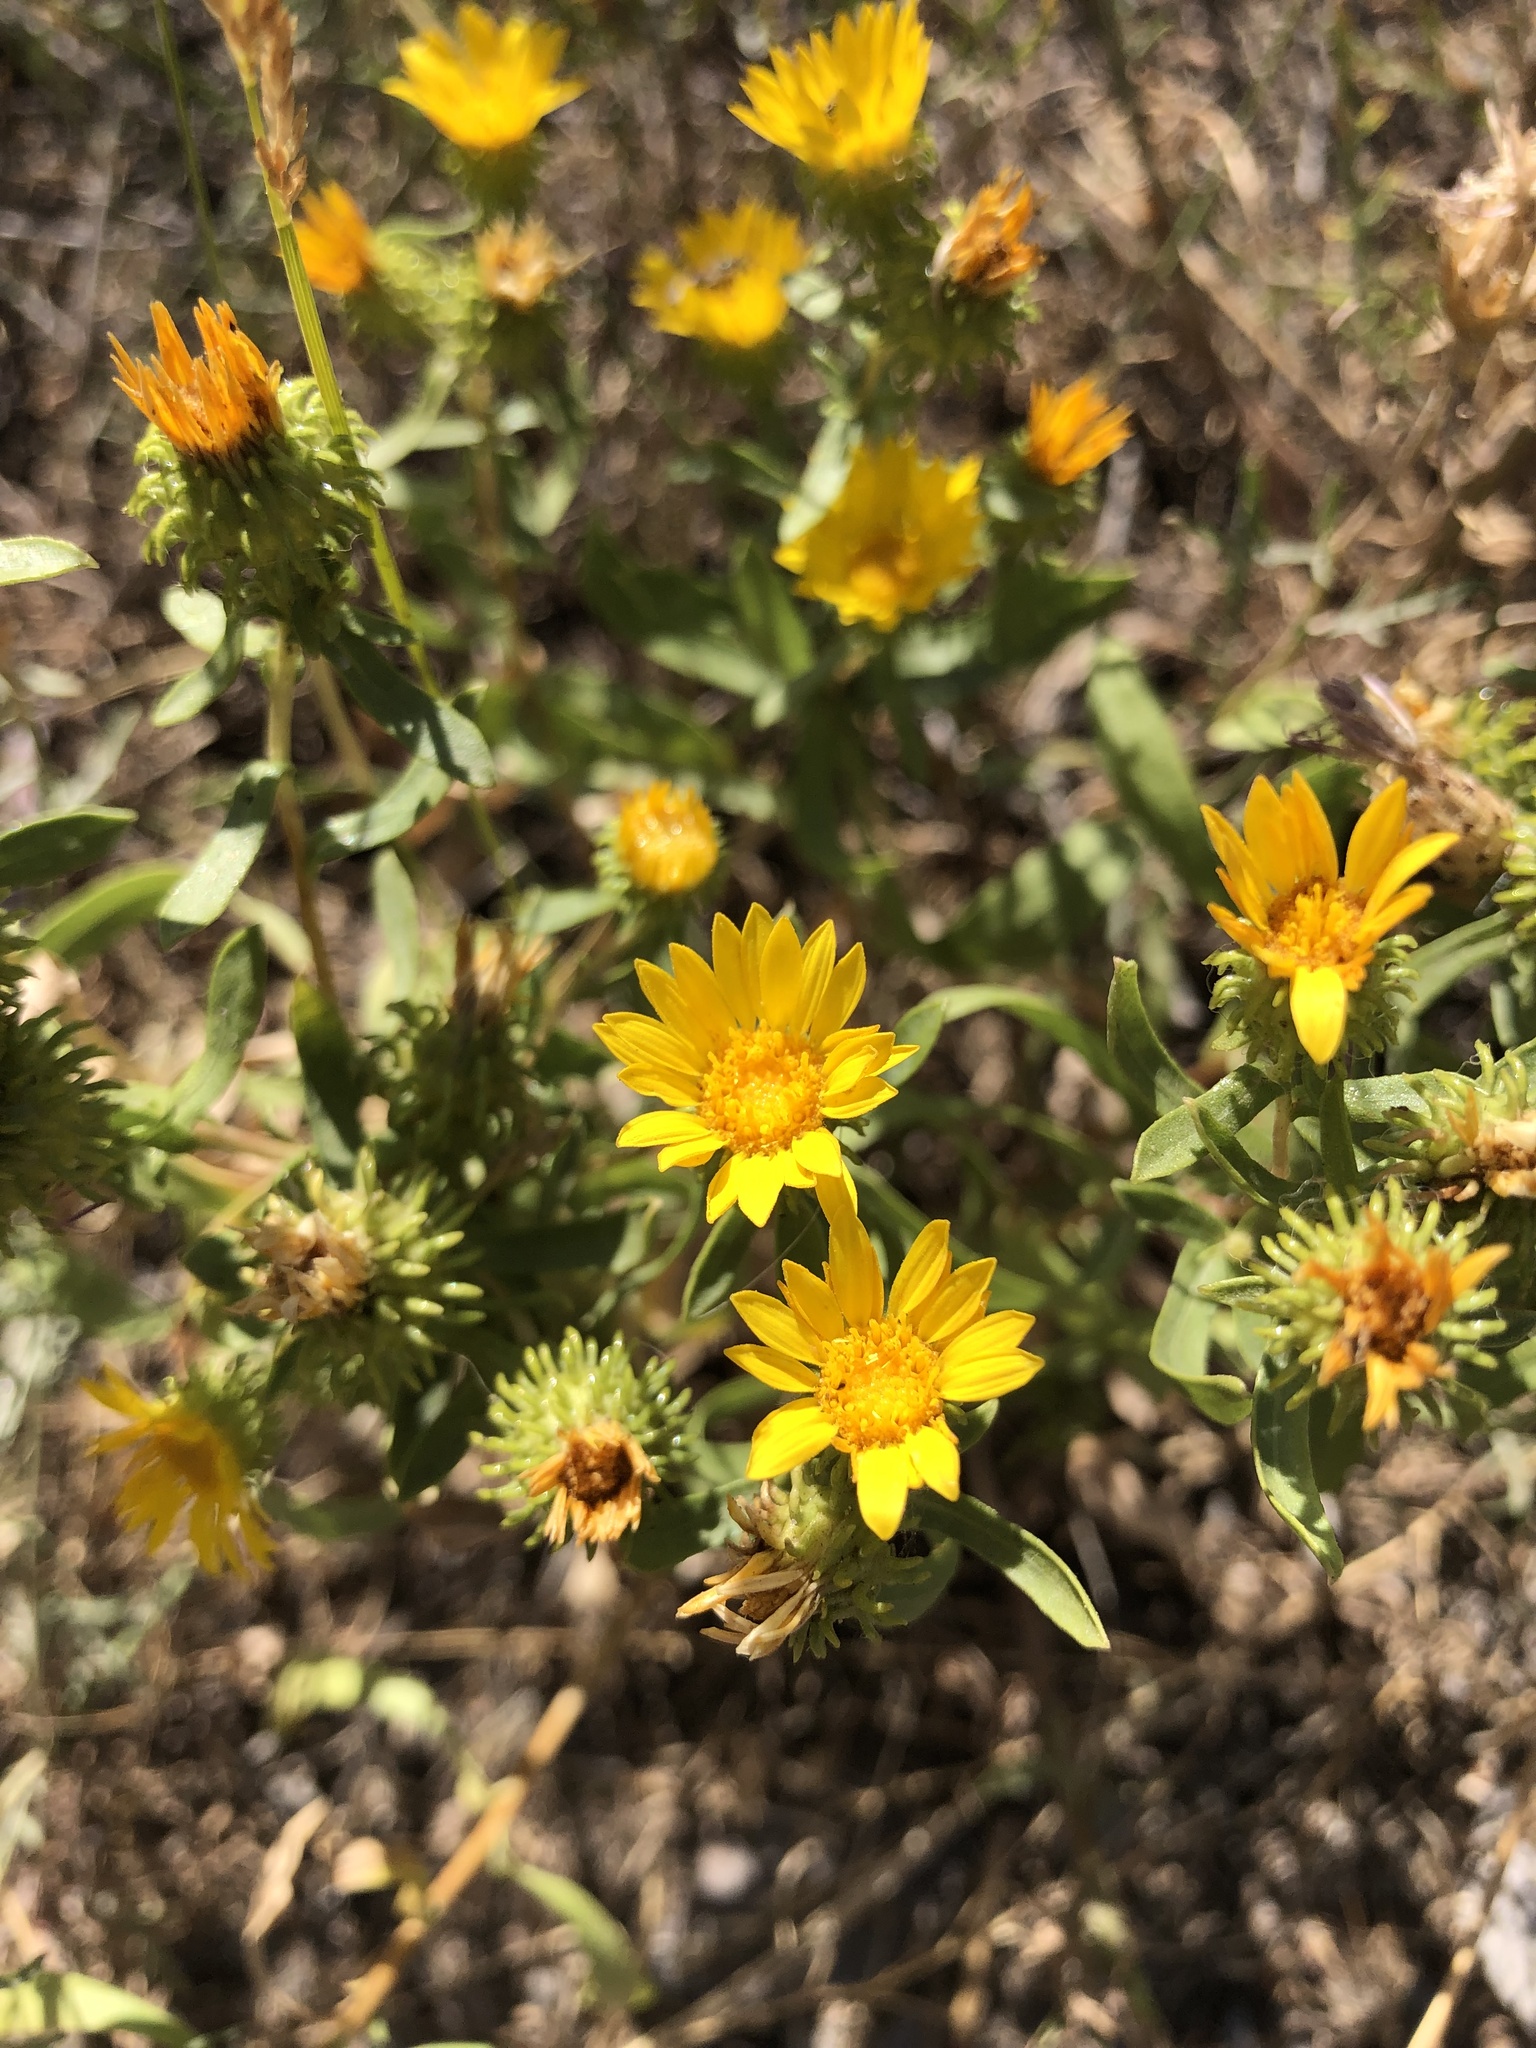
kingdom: Plantae
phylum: Tracheophyta
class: Magnoliopsida
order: Asterales
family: Asteraceae
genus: Grindelia
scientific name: Grindelia squarrosa
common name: Curly-cup gumweed
